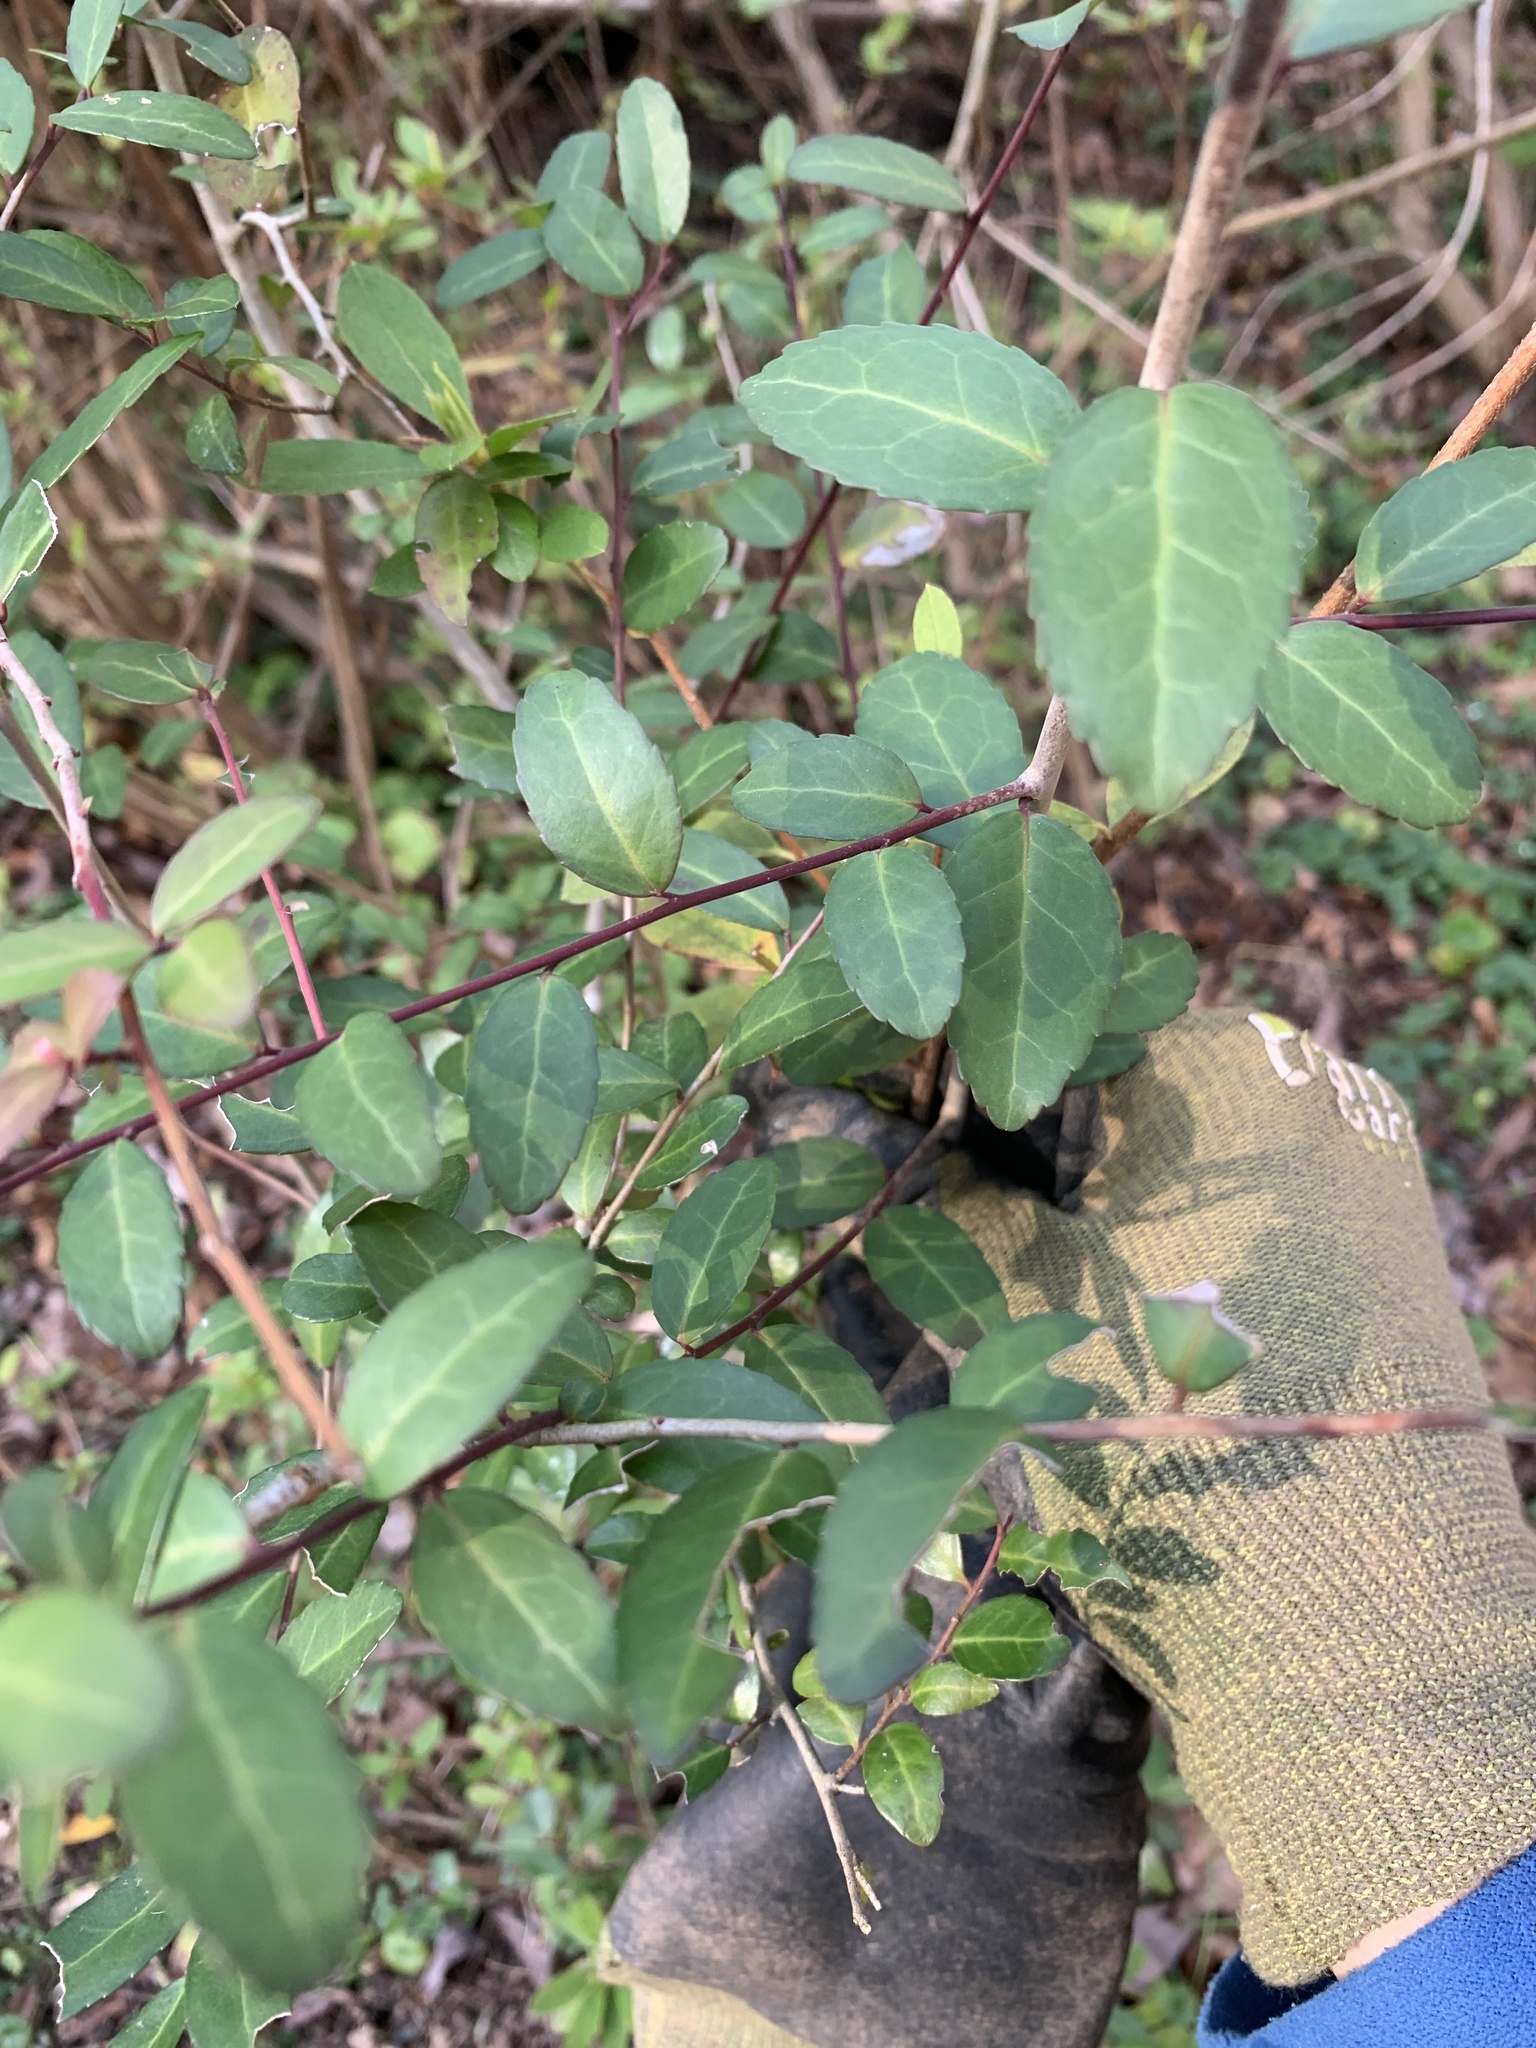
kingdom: Plantae
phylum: Tracheophyta
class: Magnoliopsida
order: Aquifoliales
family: Aquifoliaceae
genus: Ilex
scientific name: Ilex vomitoria
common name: Yaupon holly
